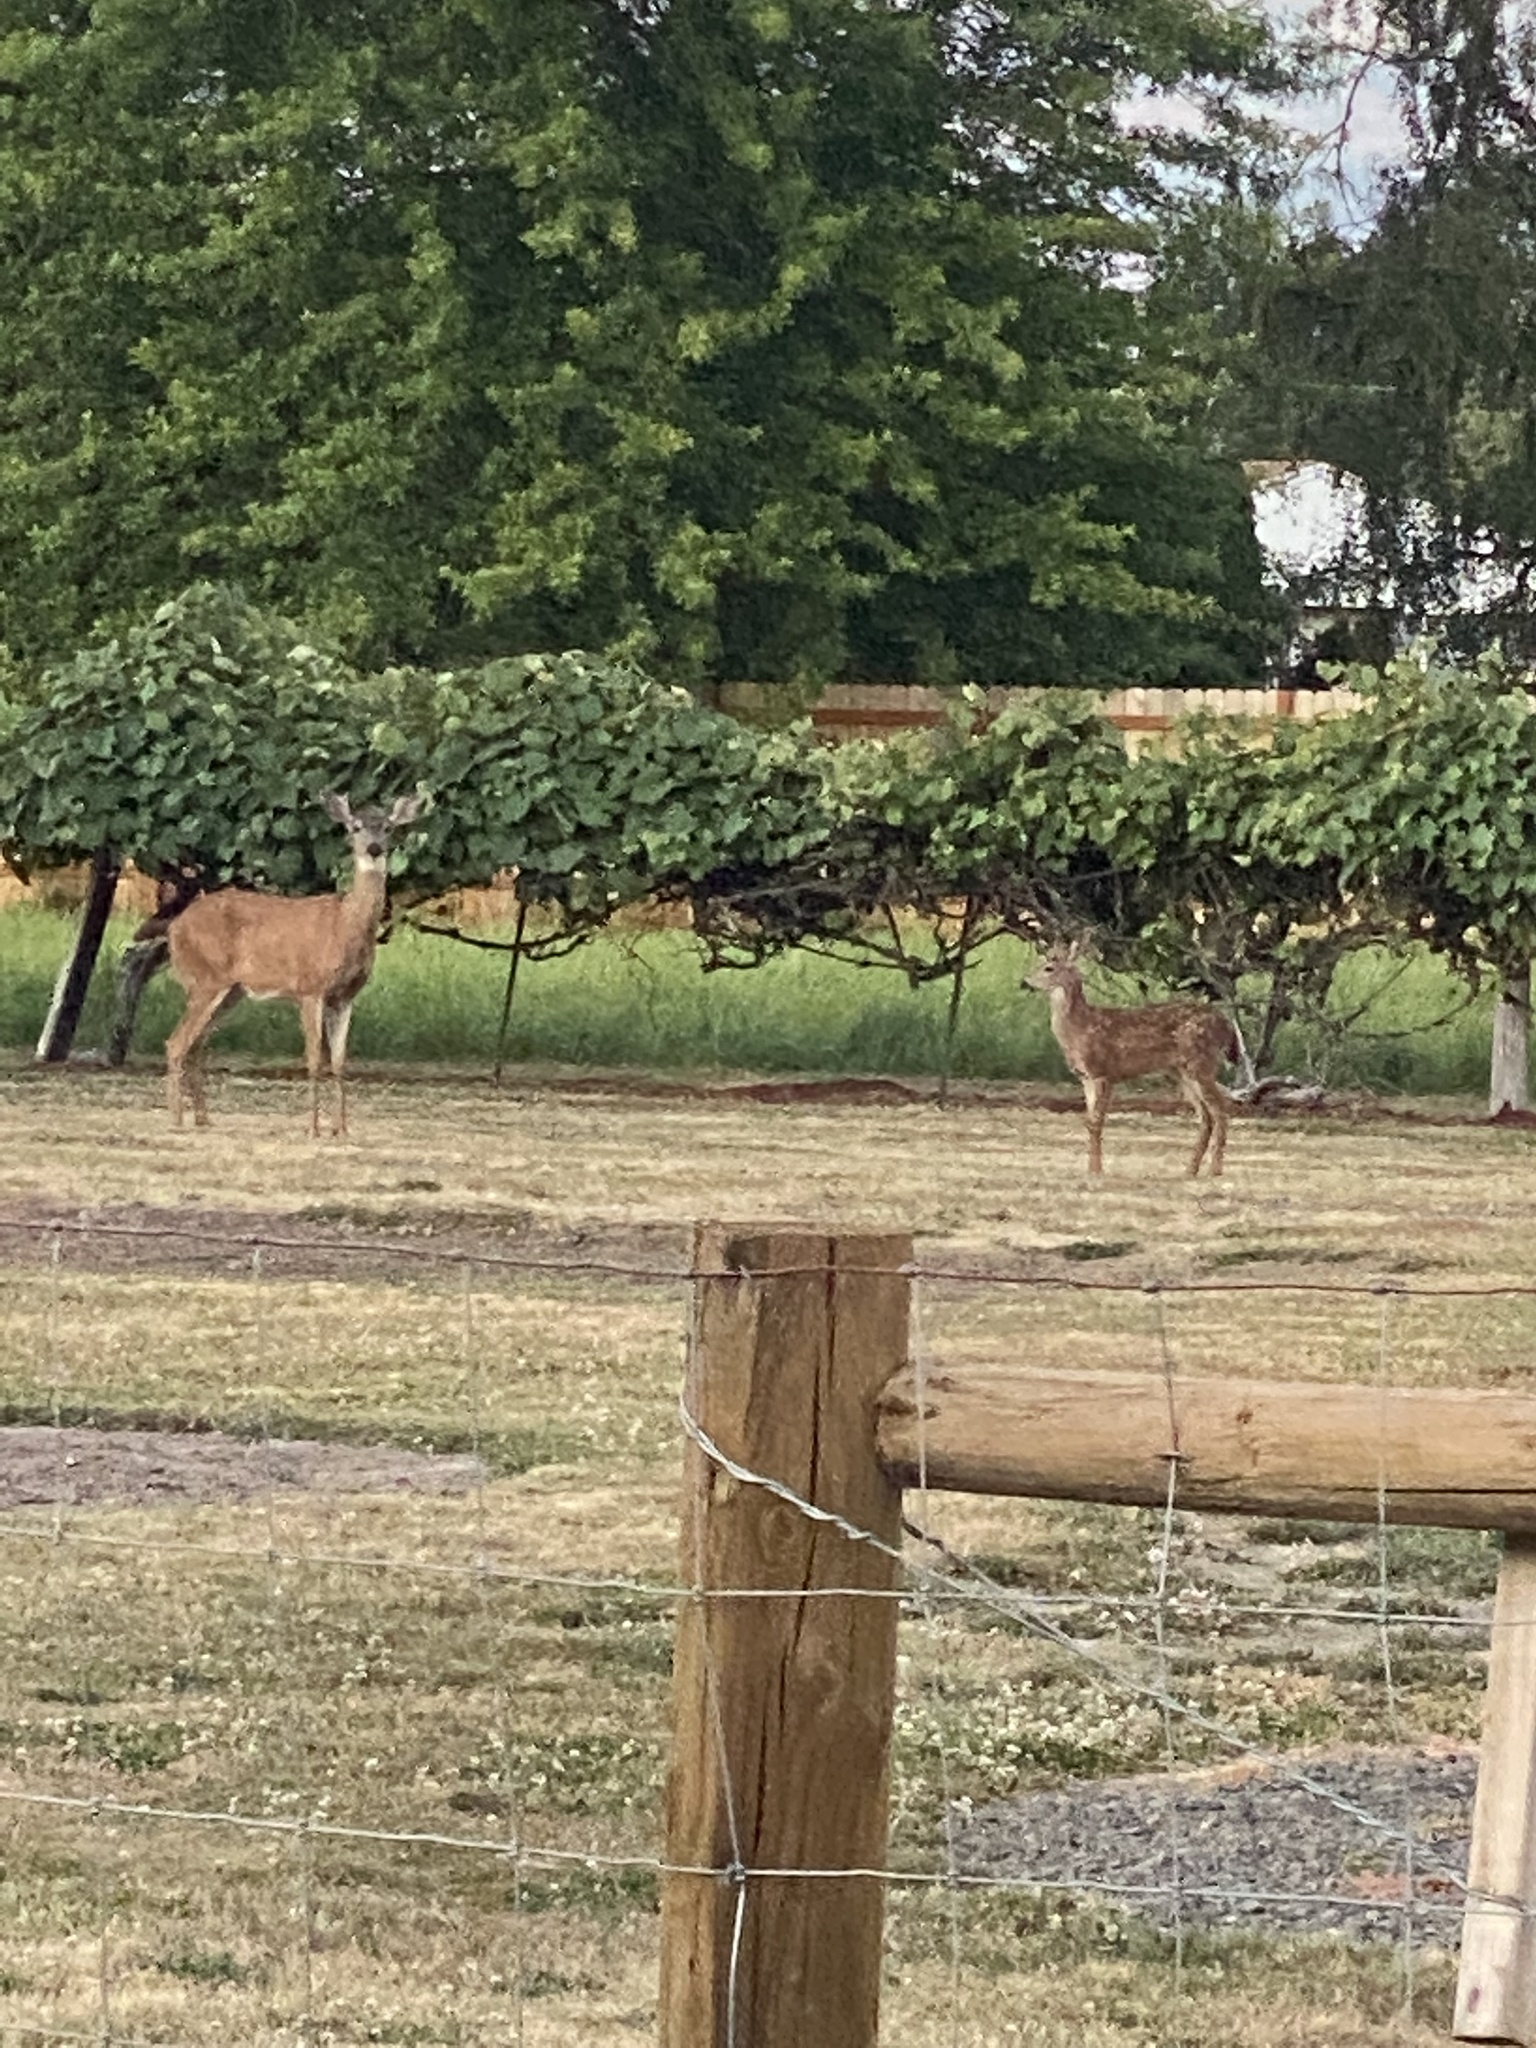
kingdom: Animalia
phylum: Chordata
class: Mammalia
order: Artiodactyla
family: Cervidae
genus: Odocoileus
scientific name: Odocoileus hemionus
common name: Mule deer
